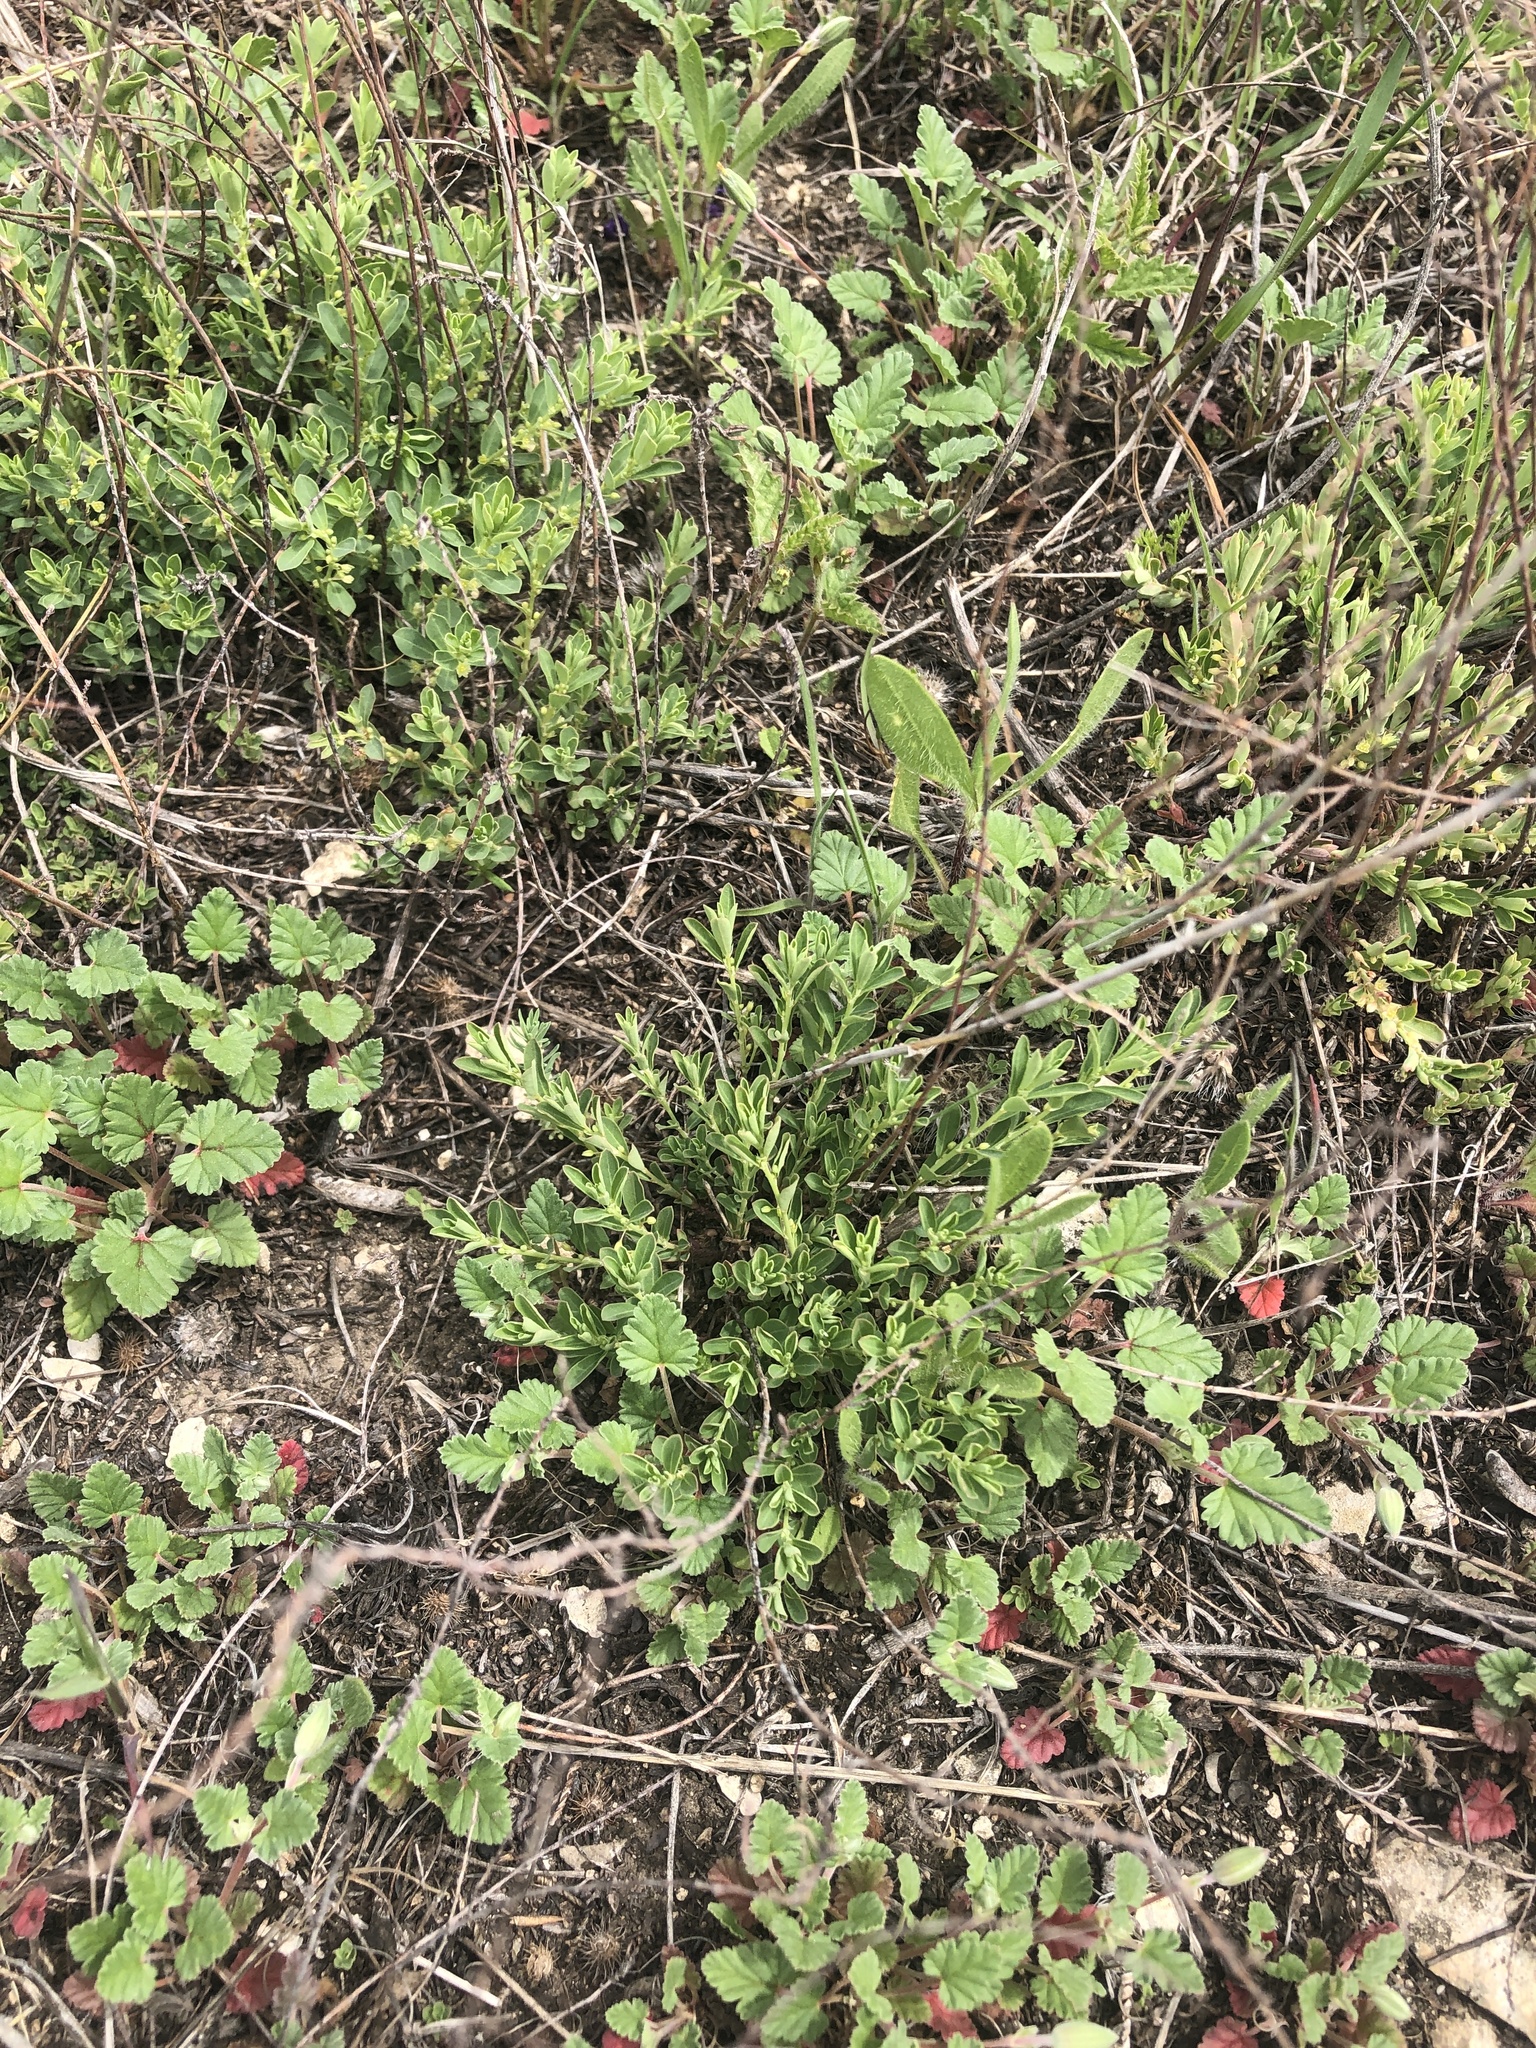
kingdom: Plantae
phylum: Tracheophyta
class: Magnoliopsida
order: Malpighiales
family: Phyllanthaceae
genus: Phyllanthus
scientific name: Phyllanthus polygonoides
